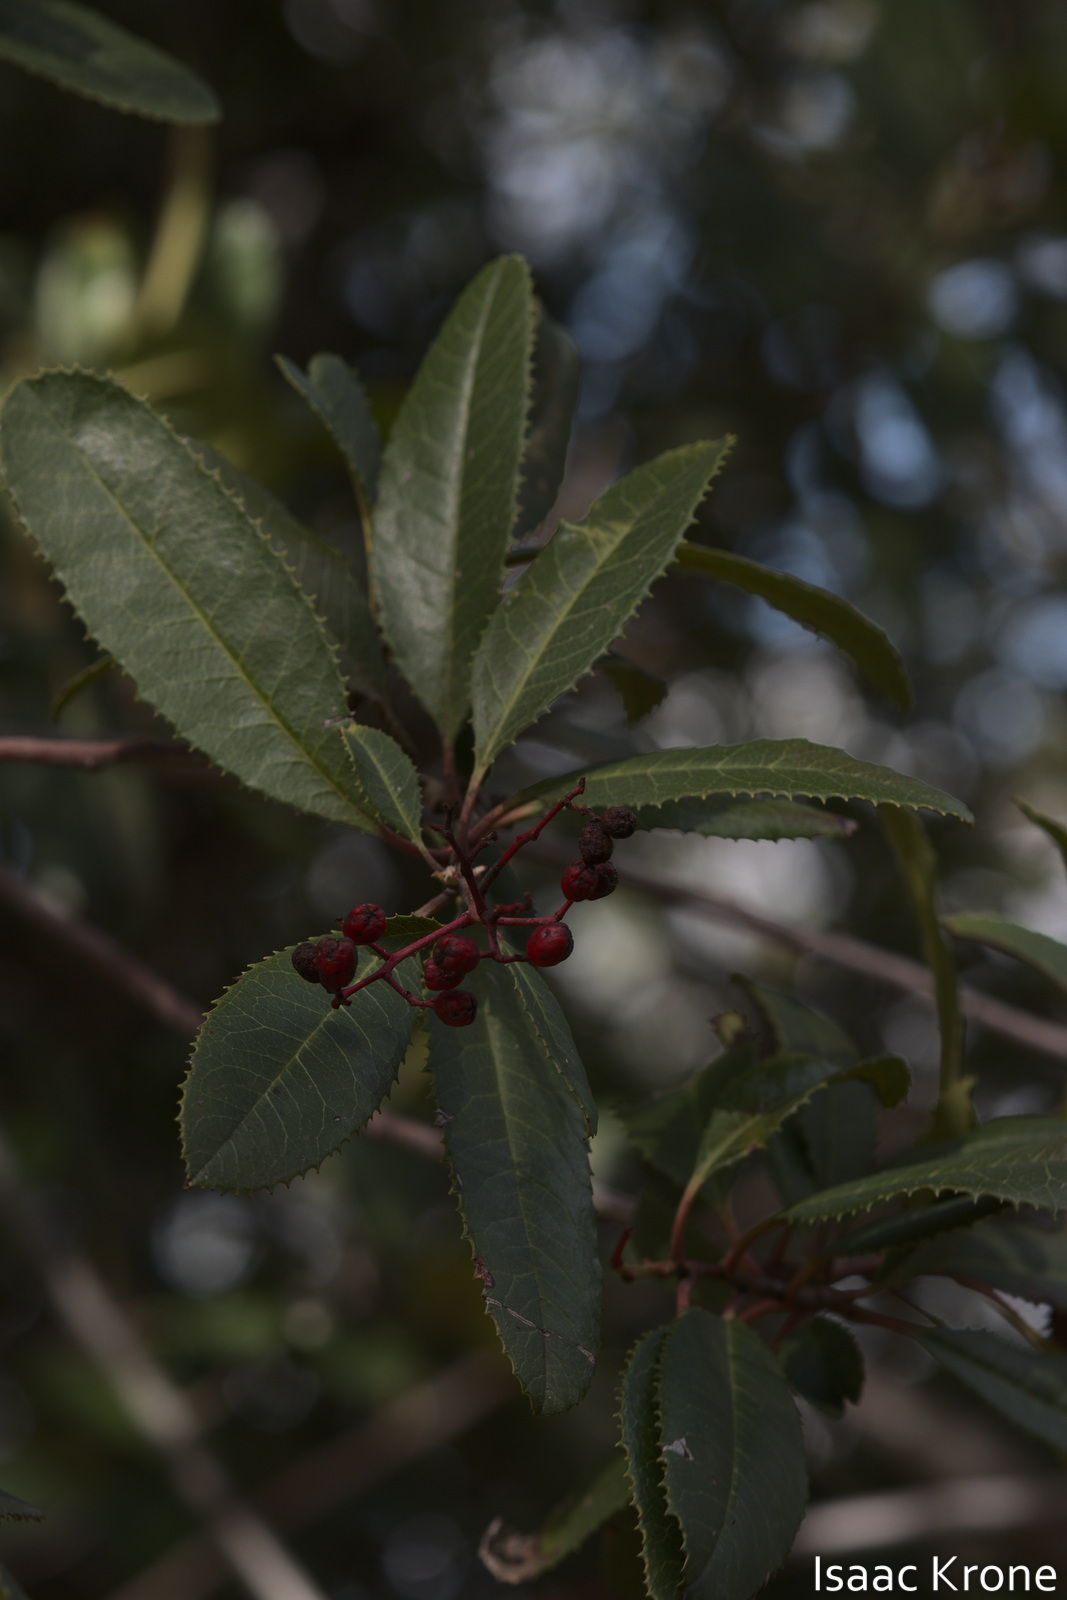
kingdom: Plantae
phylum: Tracheophyta
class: Magnoliopsida
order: Rosales
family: Rosaceae
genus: Heteromeles
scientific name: Heteromeles arbutifolia
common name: California-holly
